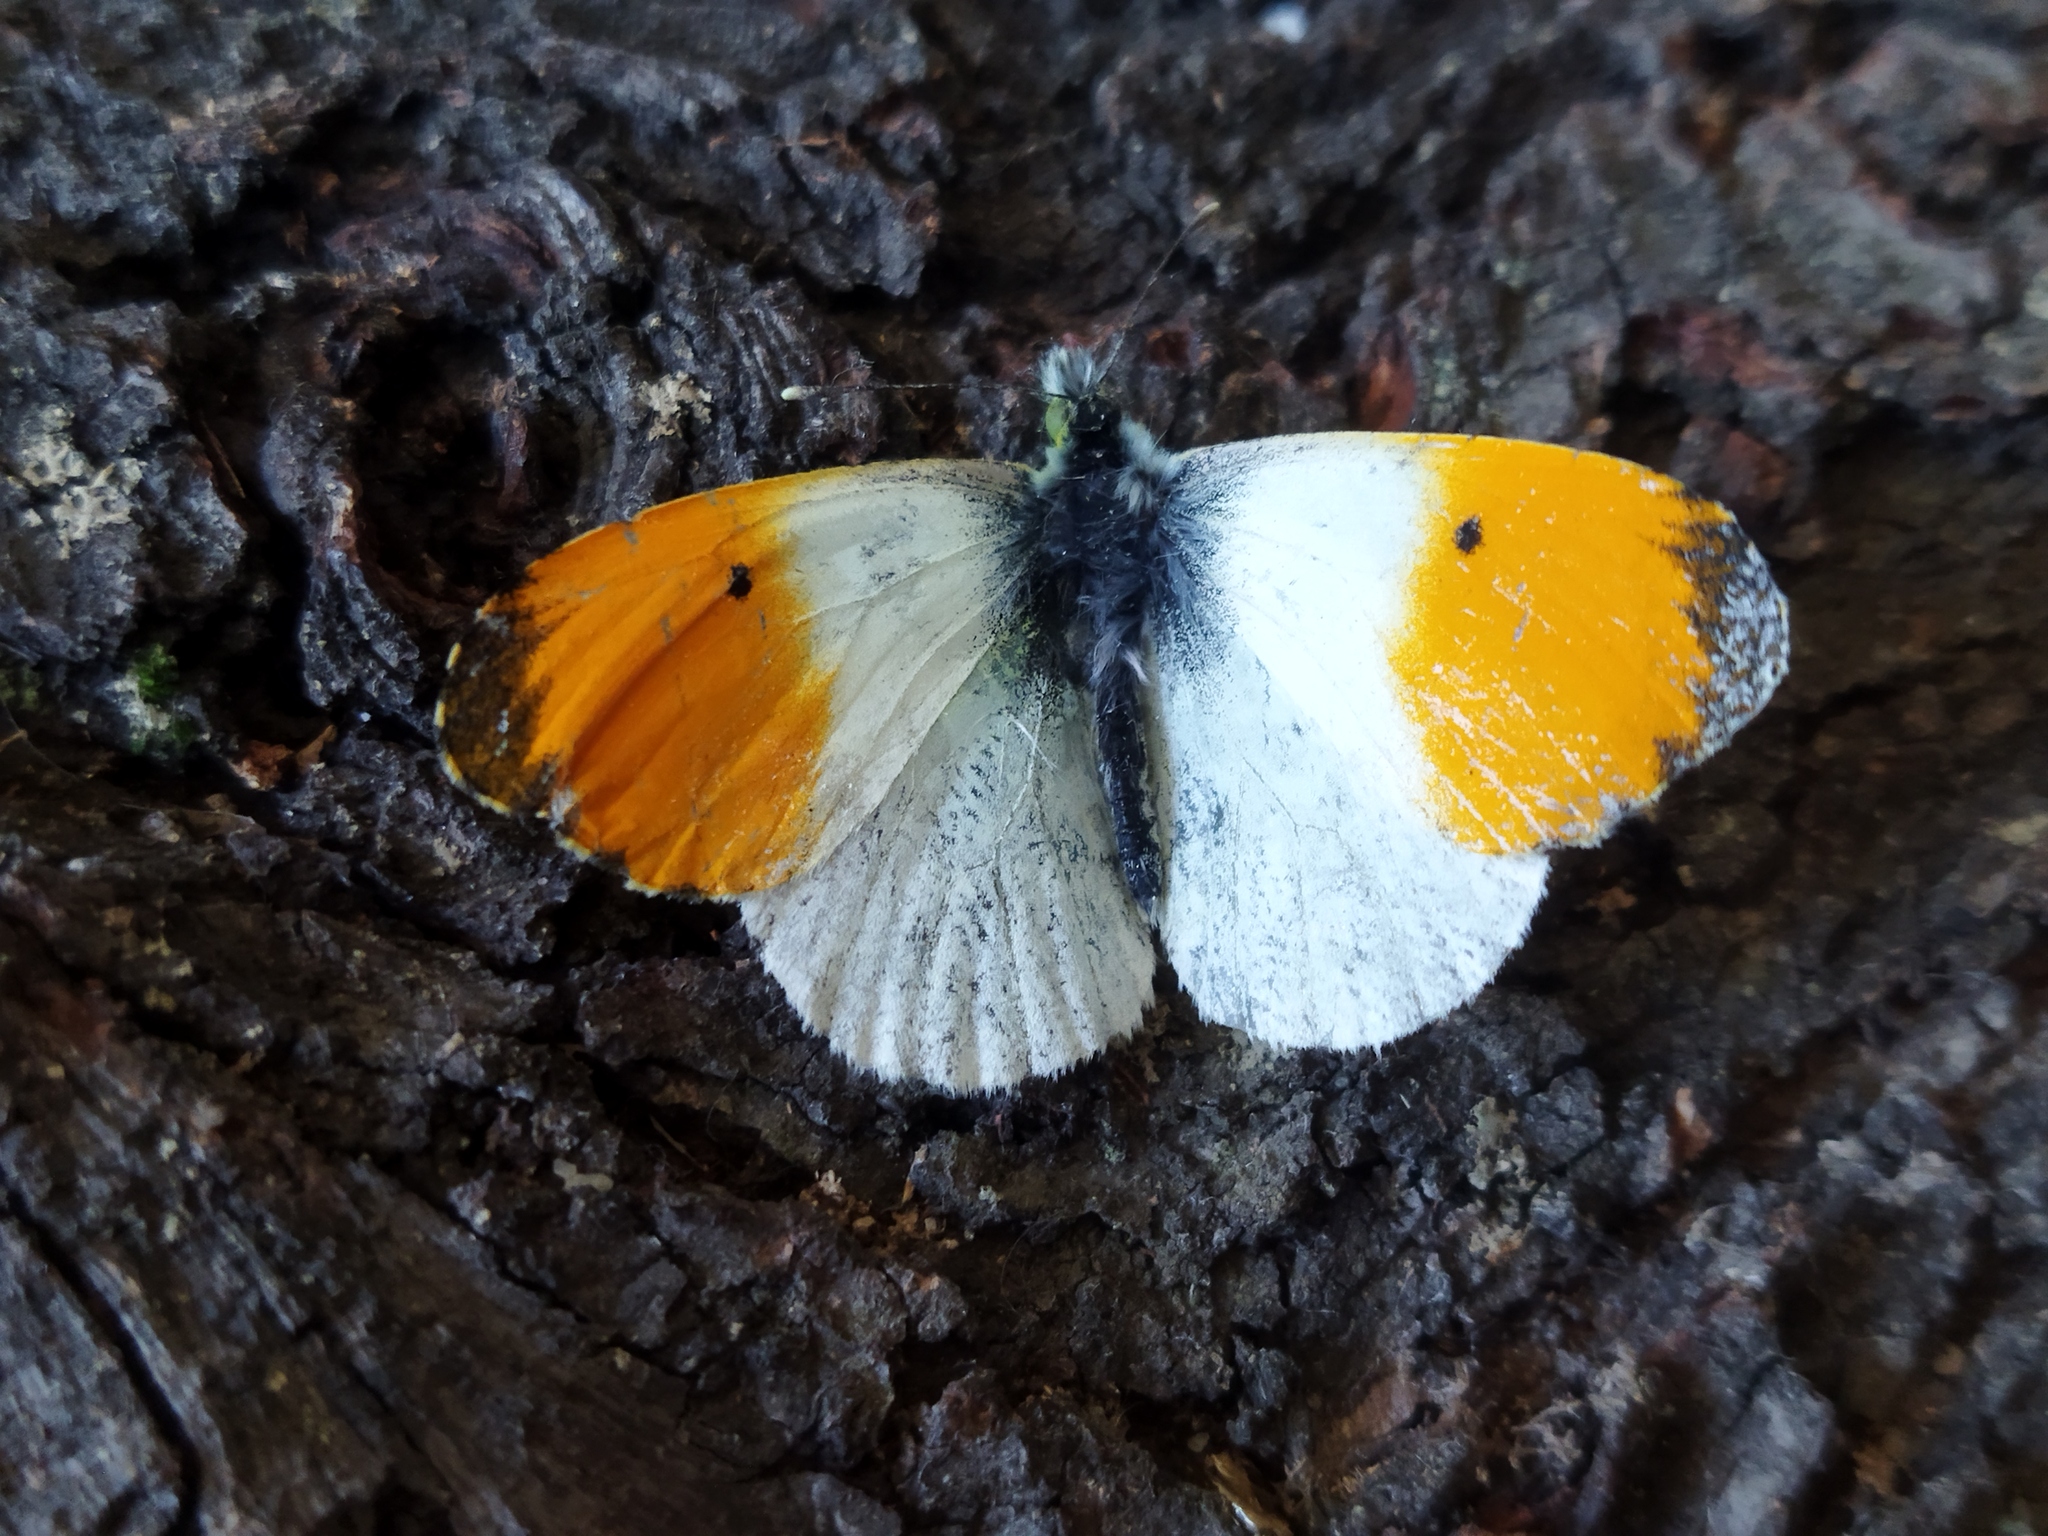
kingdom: Animalia
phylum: Arthropoda
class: Insecta
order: Lepidoptera
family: Pieridae
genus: Anthocharis
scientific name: Anthocharis cardamines
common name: Orange-tip
